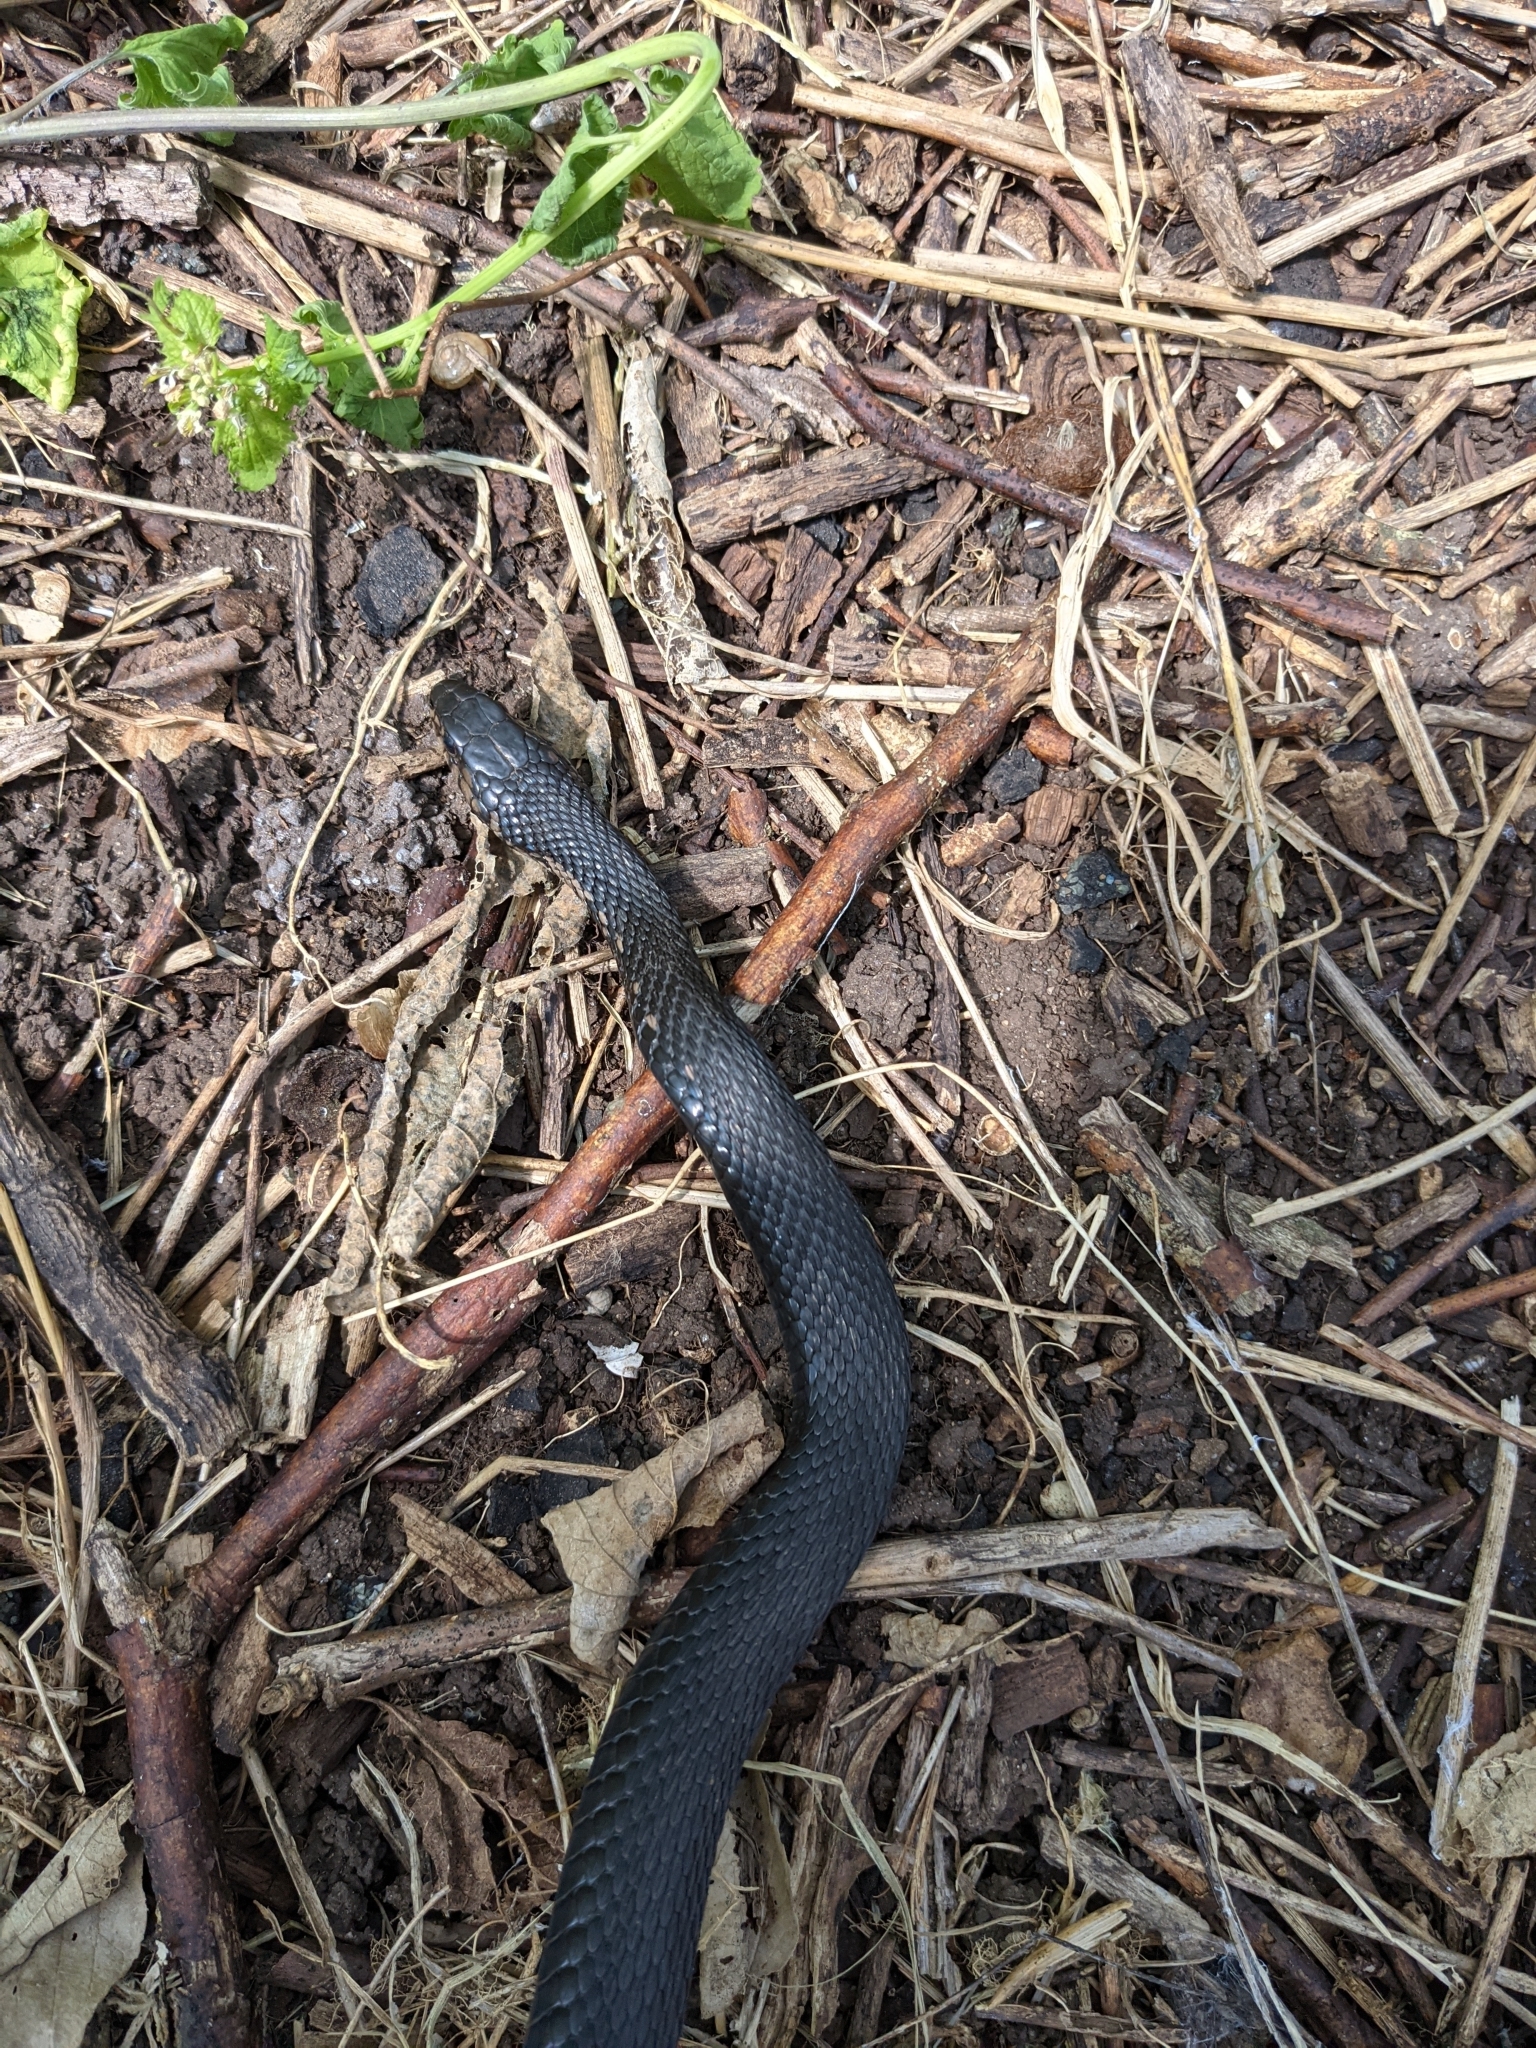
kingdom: Animalia
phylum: Chordata
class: Squamata
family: Colubridae
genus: Thamnophis
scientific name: Thamnophis sirtalis
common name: Common garter snake
